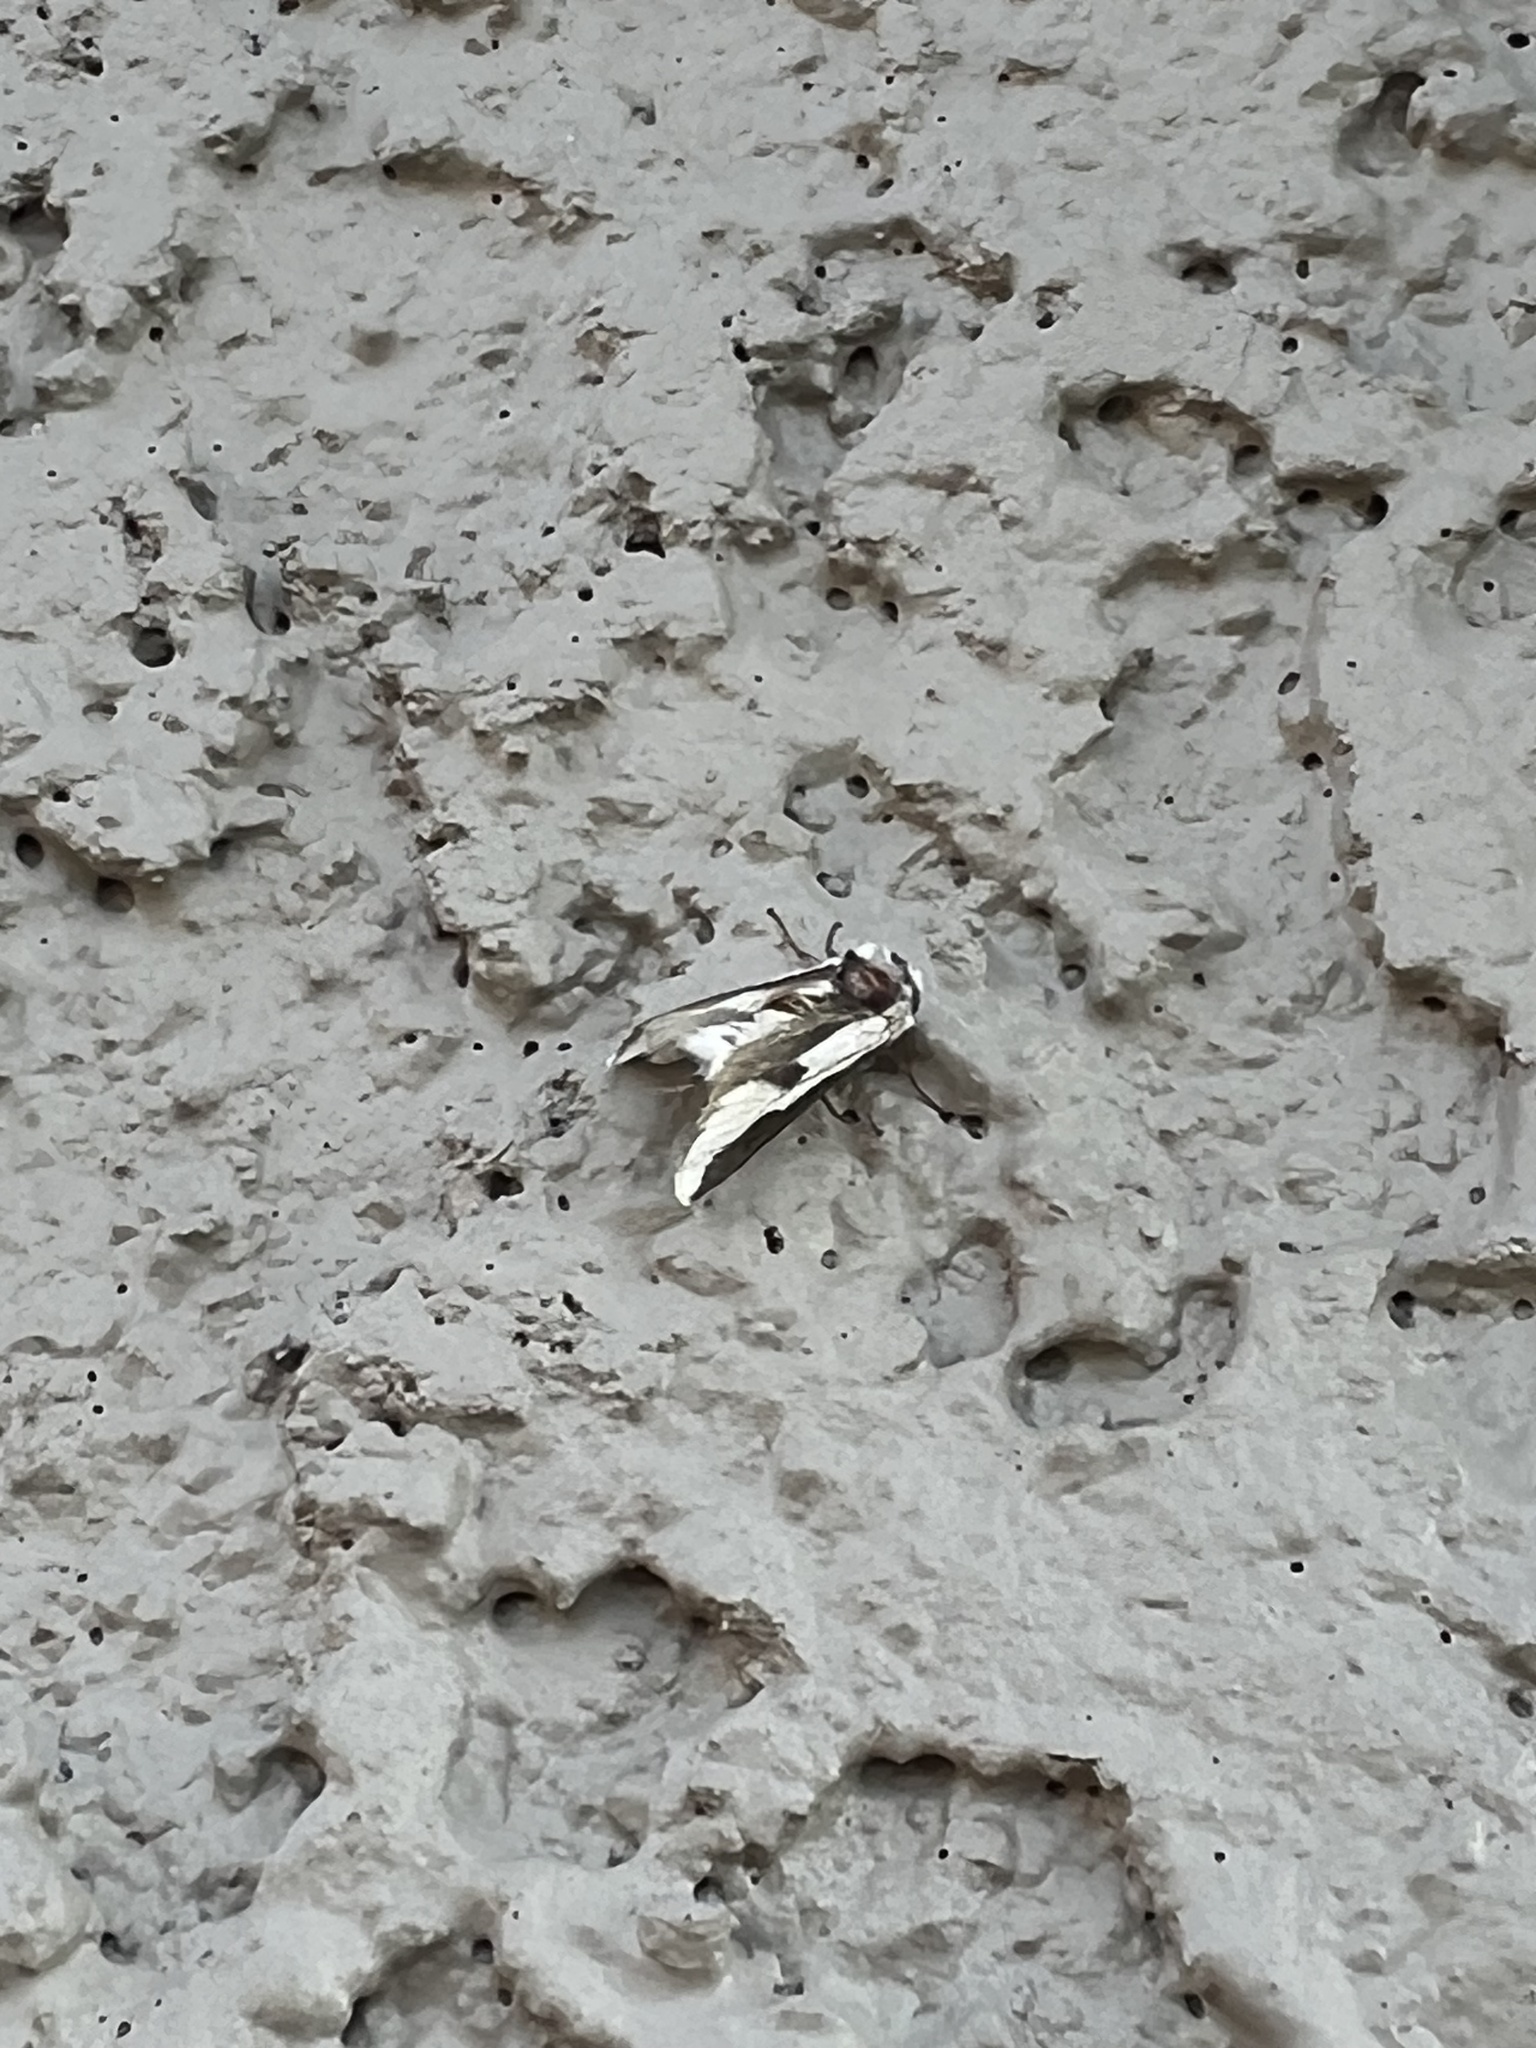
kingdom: Animalia
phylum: Arthropoda
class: Insecta
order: Lepidoptera
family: Megalopygidae
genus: Norape
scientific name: Norape tener
